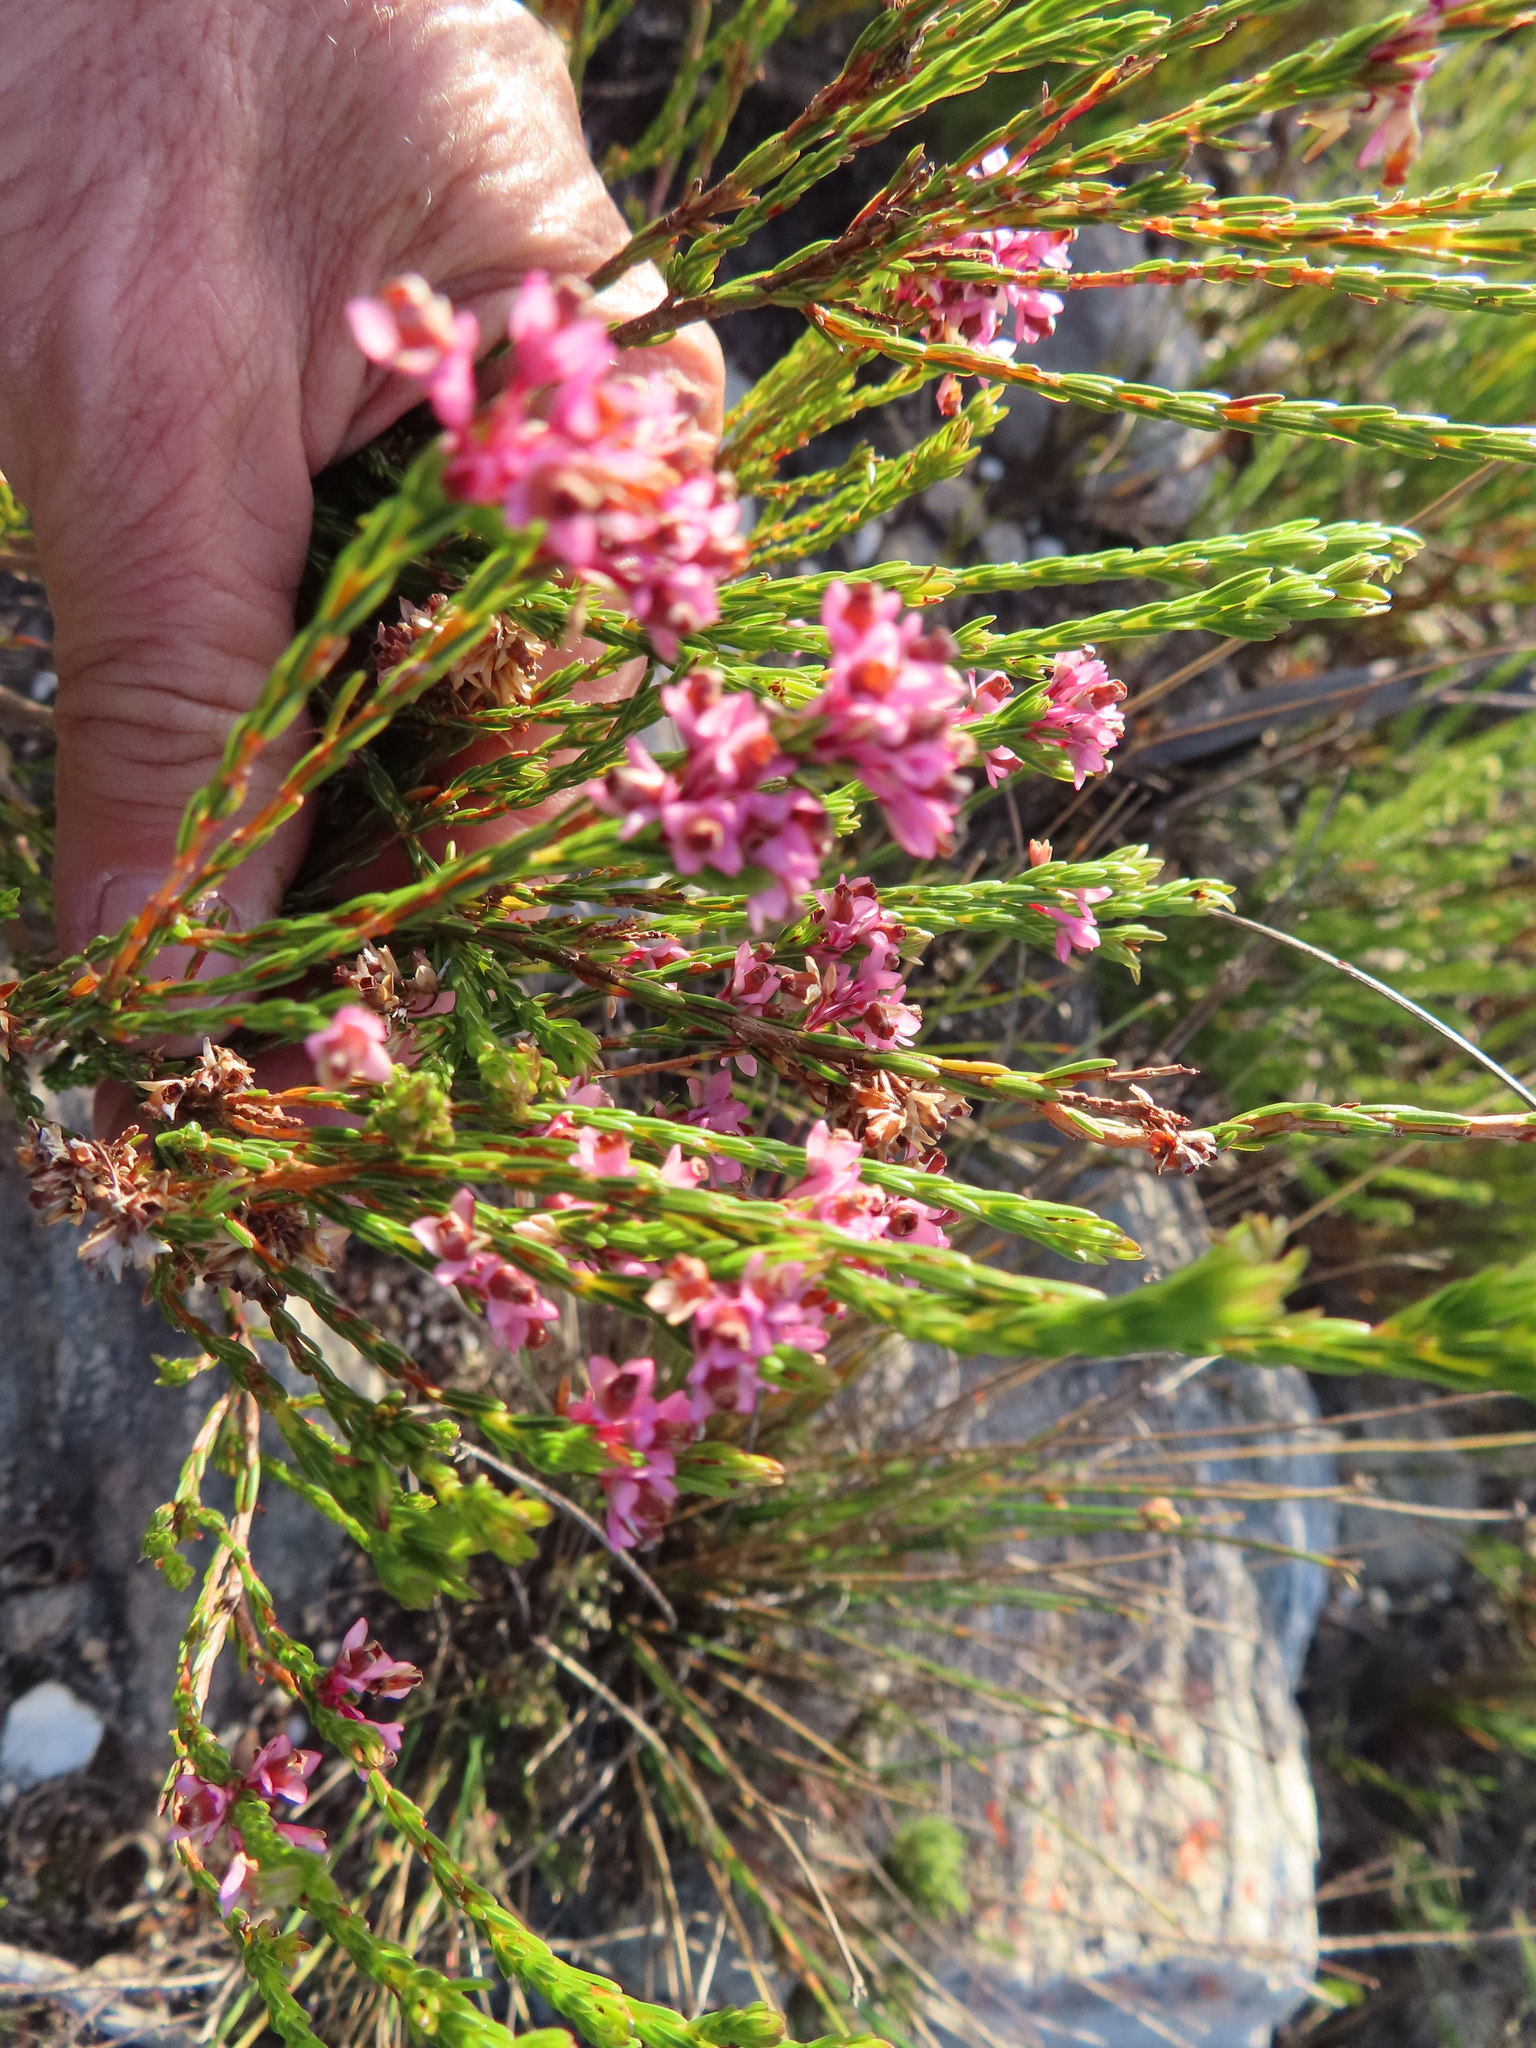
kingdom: Plantae
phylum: Tracheophyta
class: Magnoliopsida
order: Ericales
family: Ericaceae
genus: Erica
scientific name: Erica corifolia
